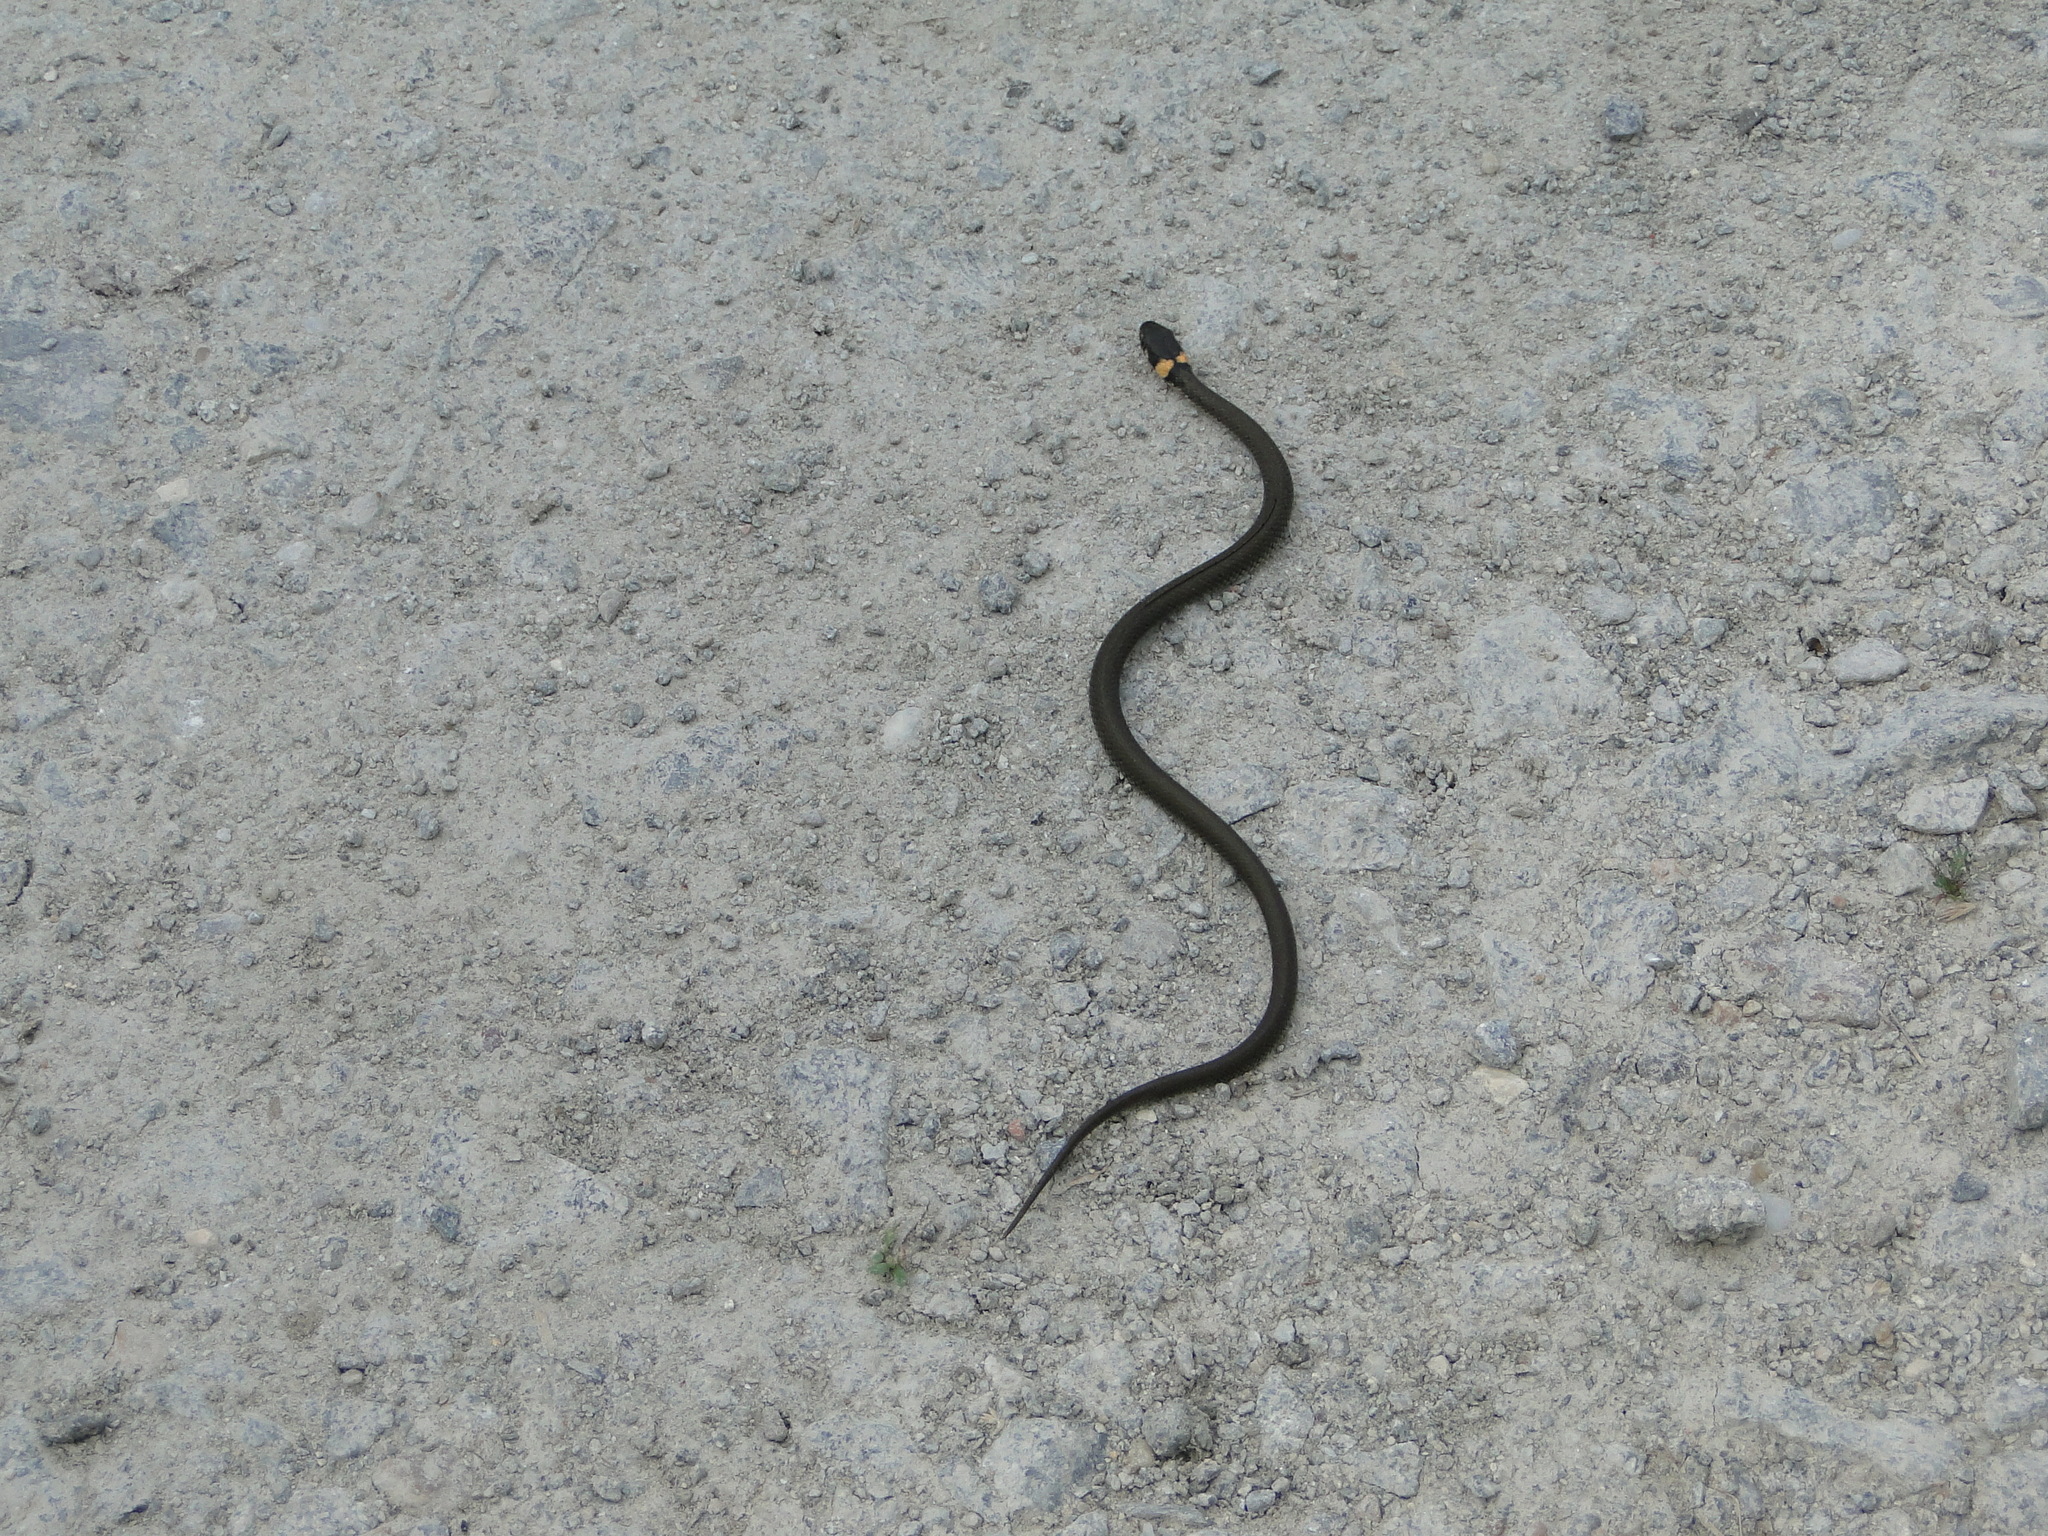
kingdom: Animalia
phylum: Chordata
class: Squamata
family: Colubridae
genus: Natrix
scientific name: Natrix natrix
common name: Grass snake
